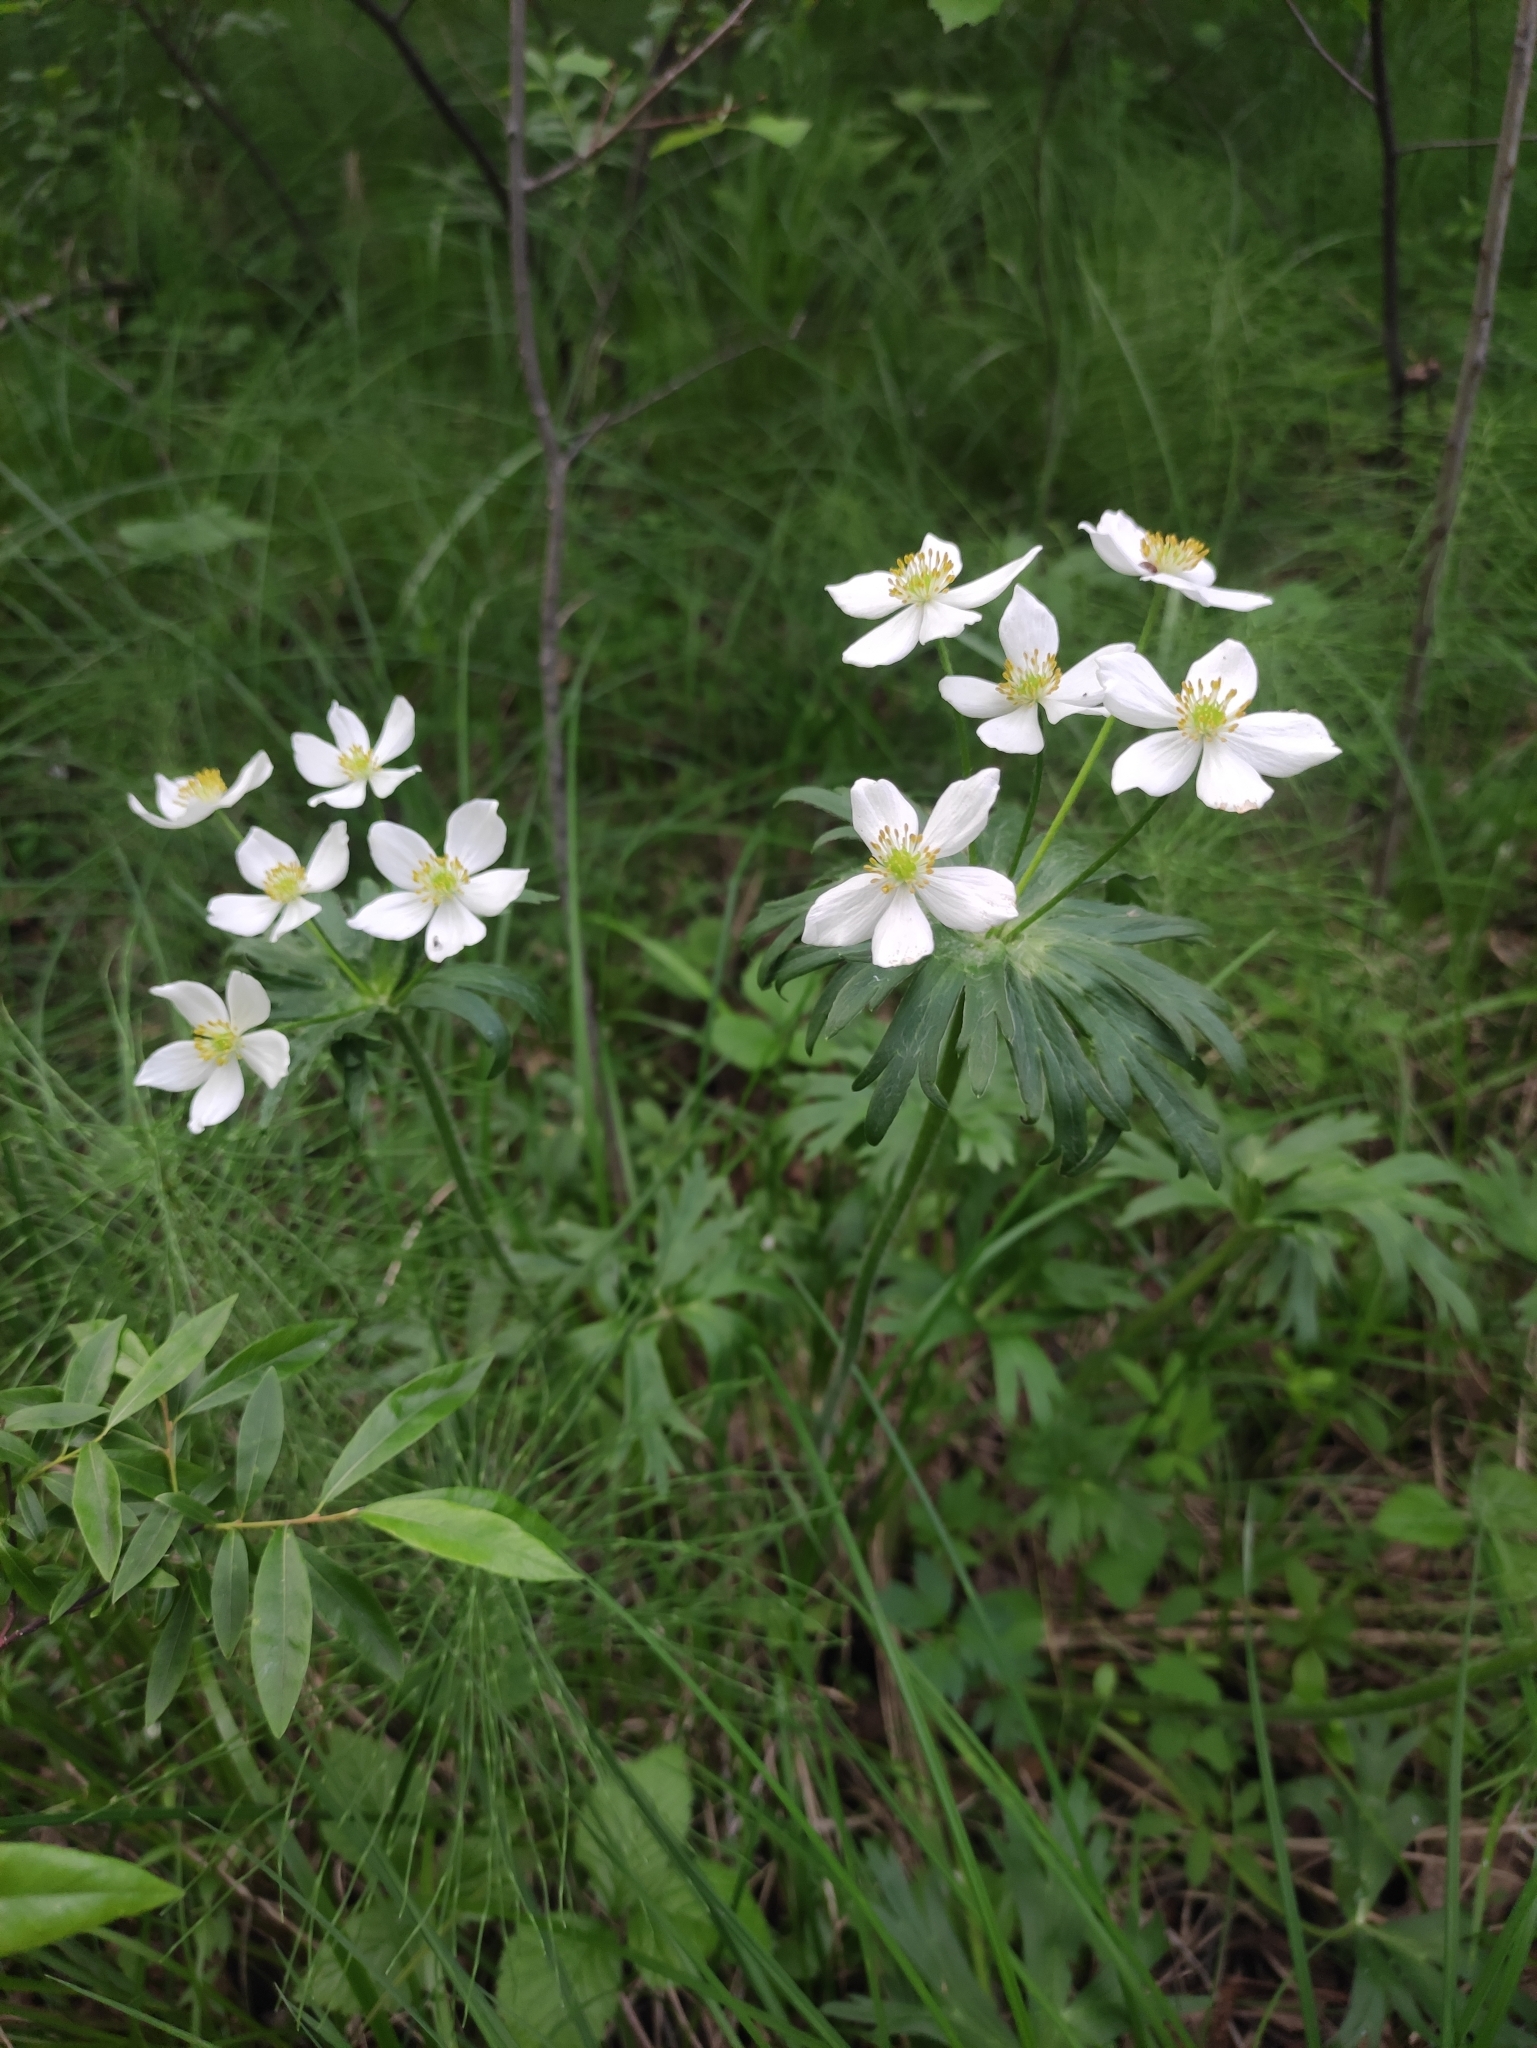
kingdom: Plantae
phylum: Tracheophyta
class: Magnoliopsida
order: Ranunculales
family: Ranunculaceae
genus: Anemonastrum
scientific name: Anemonastrum narcissiflorum
